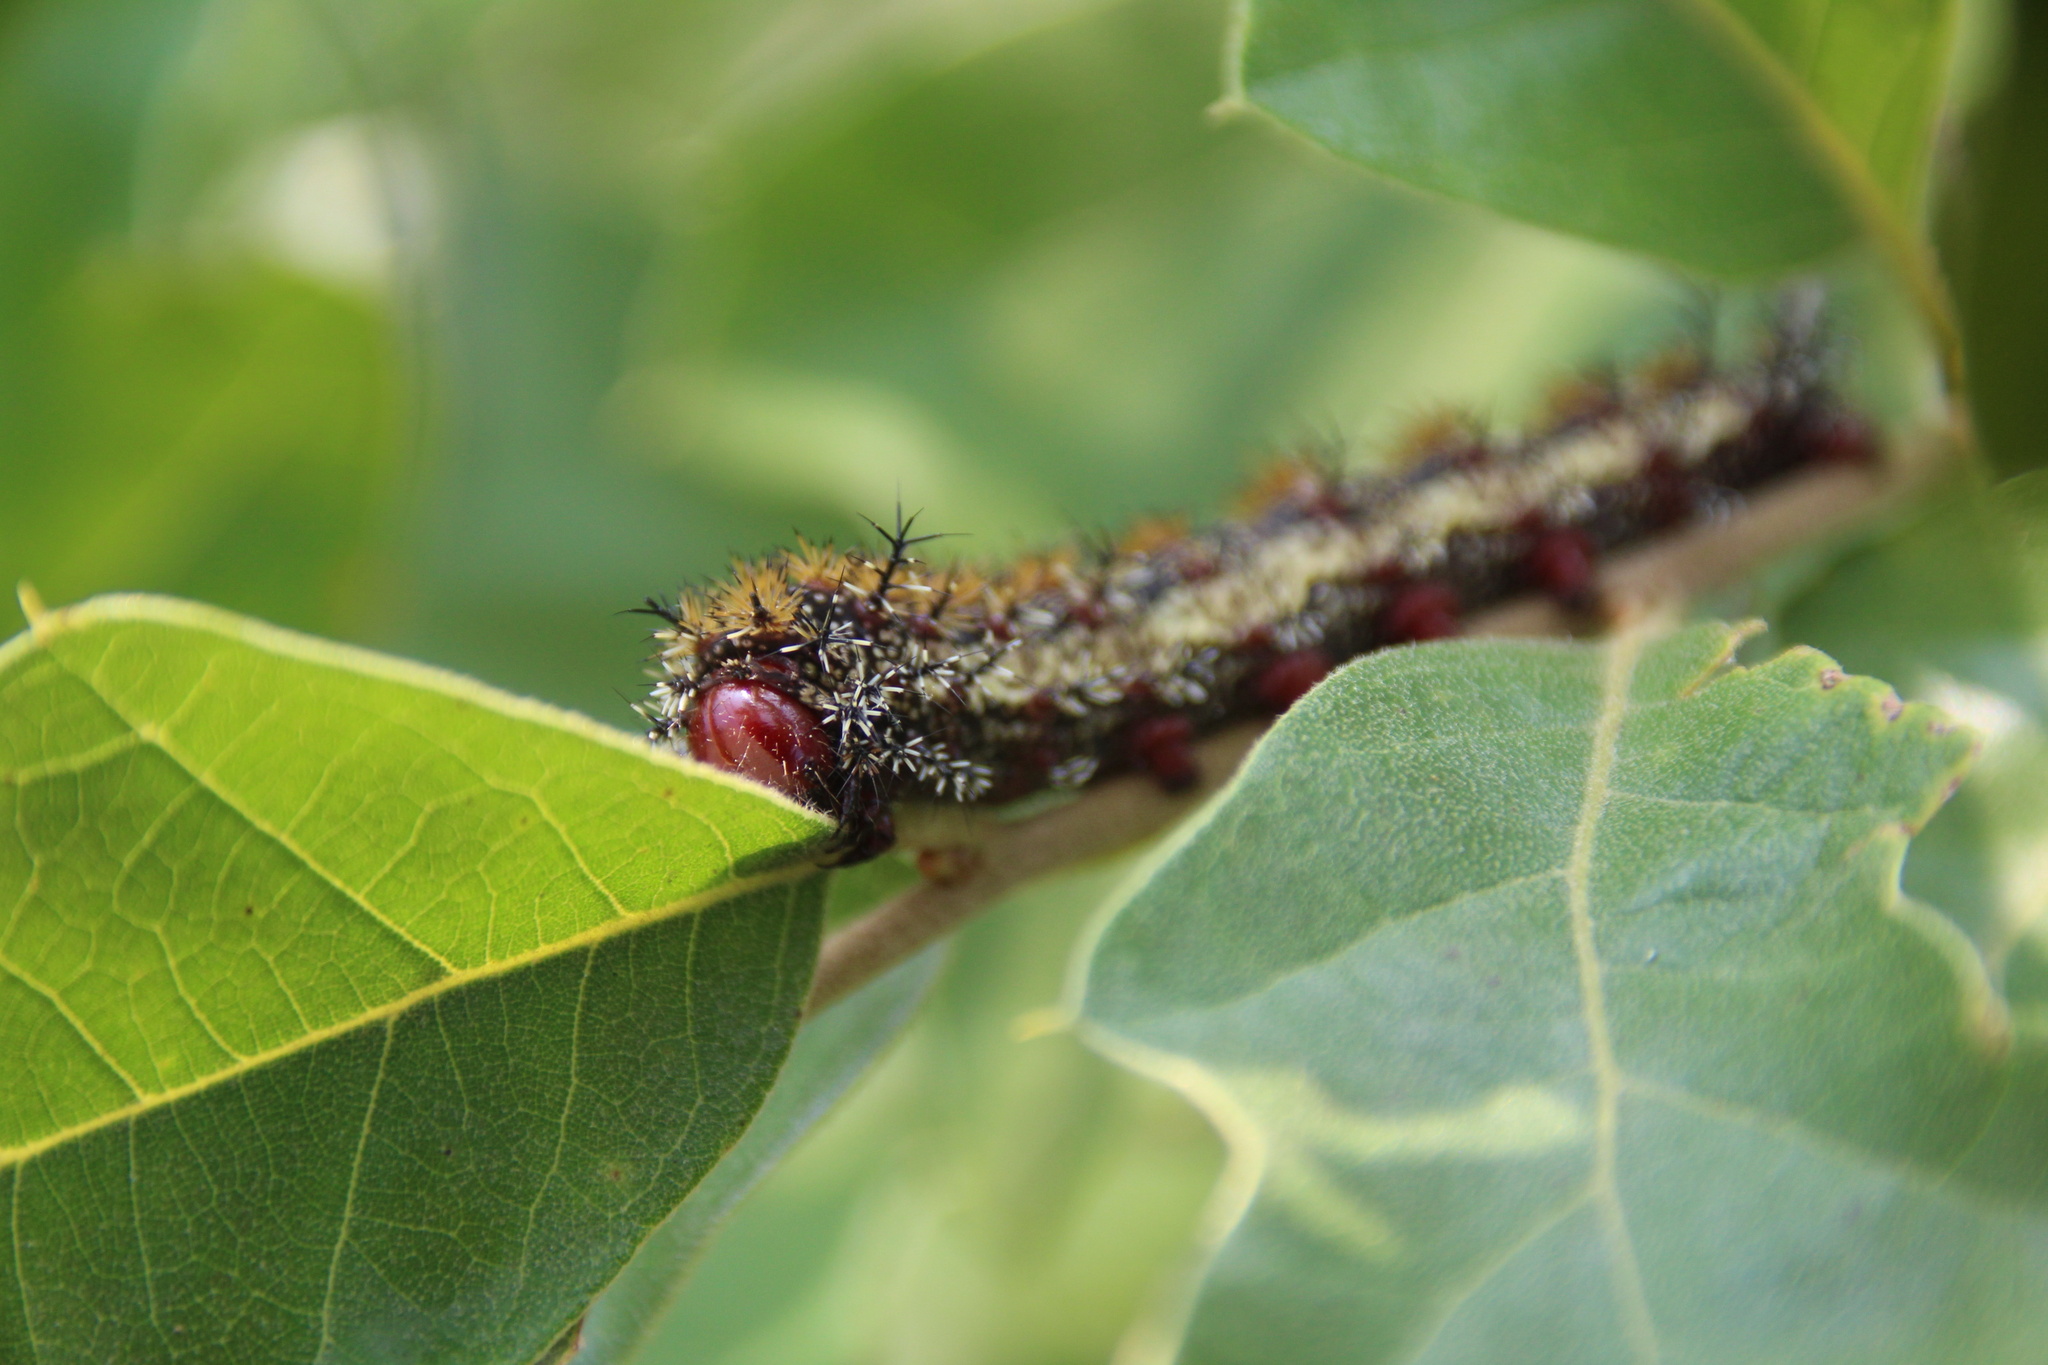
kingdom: Animalia
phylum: Arthropoda
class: Insecta
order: Lepidoptera
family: Saturniidae
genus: Hemileuca
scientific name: Hemileuca maia
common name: Eastern buckmoth
